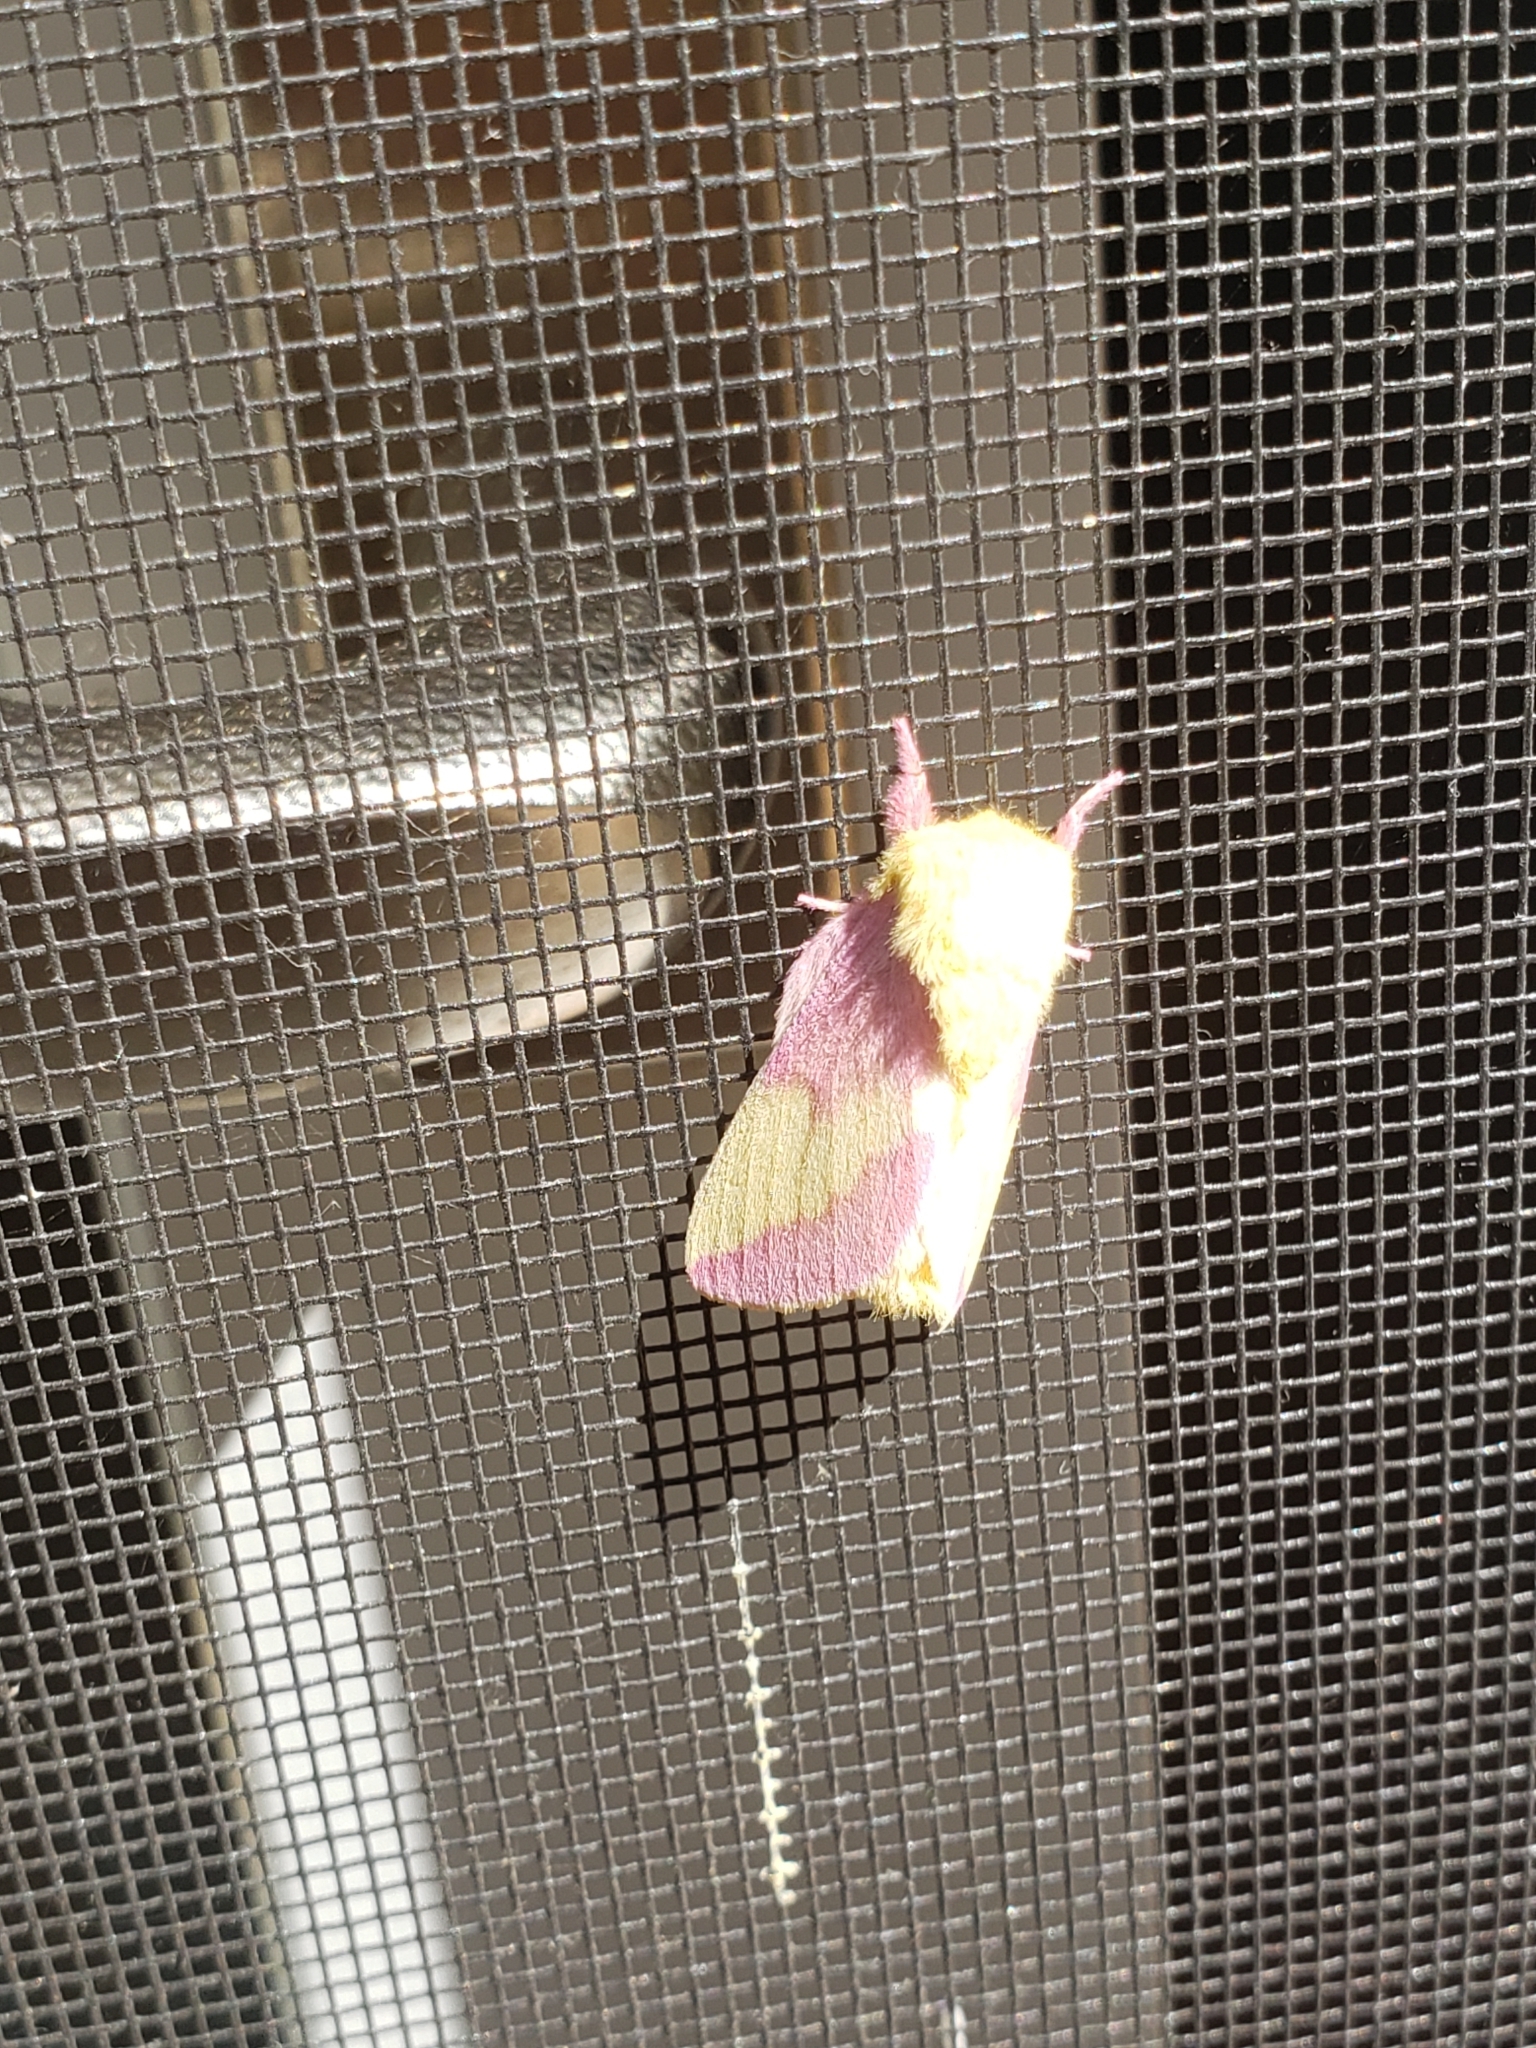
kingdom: Animalia
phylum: Arthropoda
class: Insecta
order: Lepidoptera
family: Saturniidae
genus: Dryocampa
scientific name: Dryocampa rubicunda
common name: Rosy maple moth
